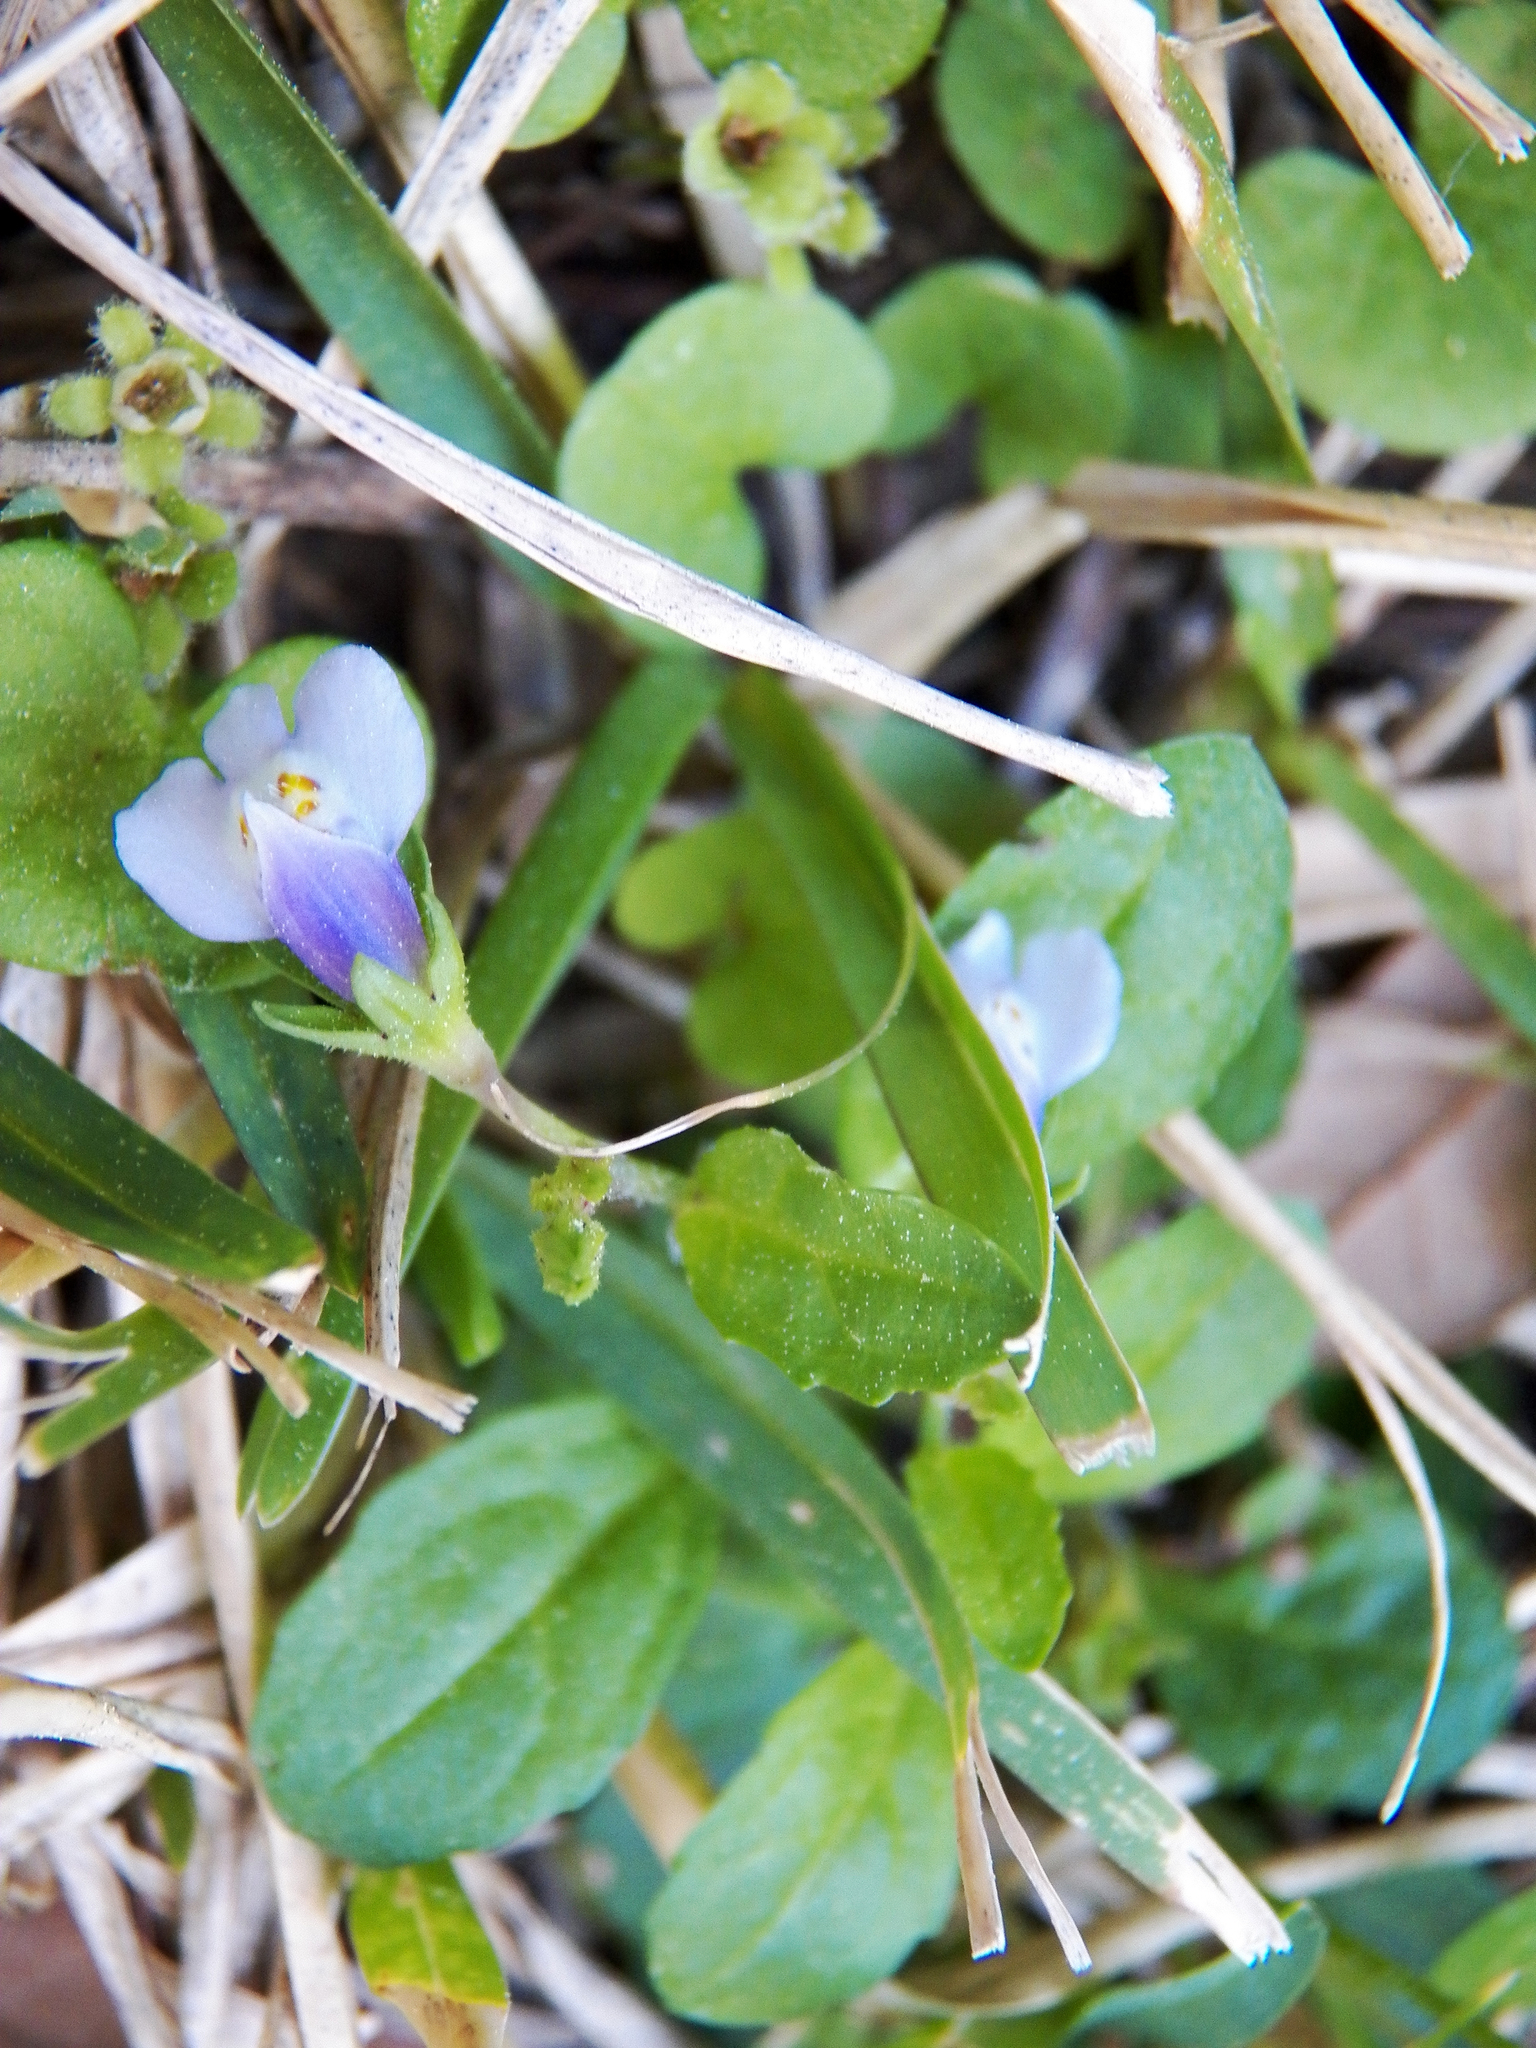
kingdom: Plantae
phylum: Tracheophyta
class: Magnoliopsida
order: Lamiales
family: Mazaceae
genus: Mazus
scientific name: Mazus pumilus
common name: Japanese mazus
